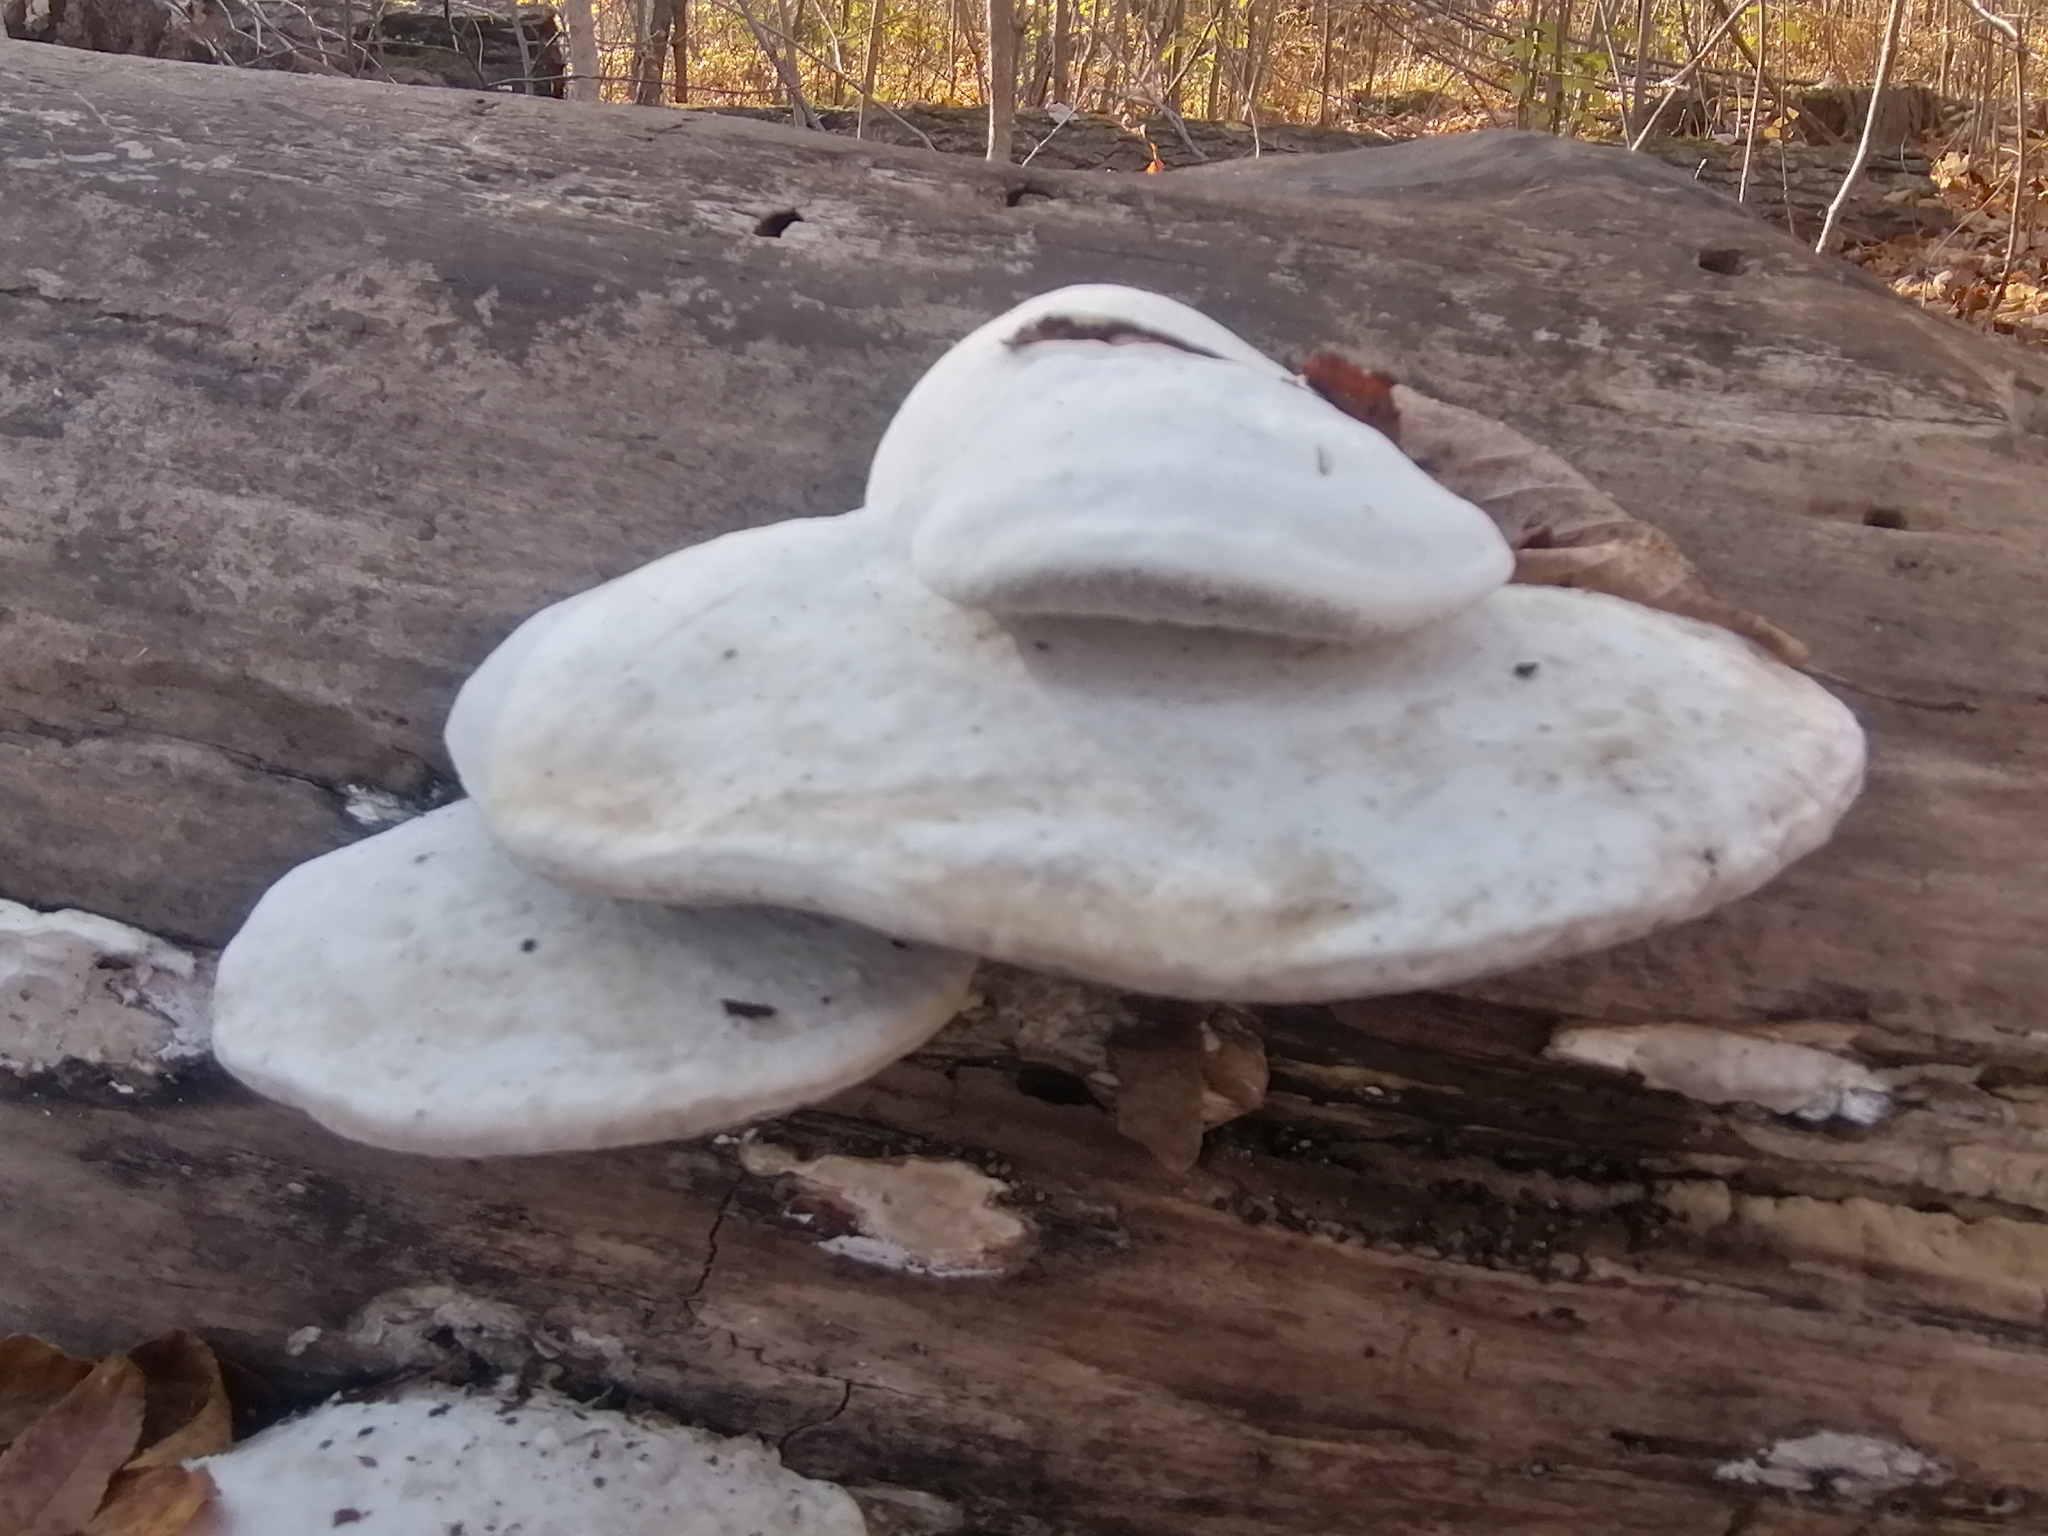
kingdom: Fungi
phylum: Basidiomycota
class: Agaricomycetes
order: Polyporales
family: Polyporaceae
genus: Trametes
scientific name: Trametes suaveolens
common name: Fragrant bracket
